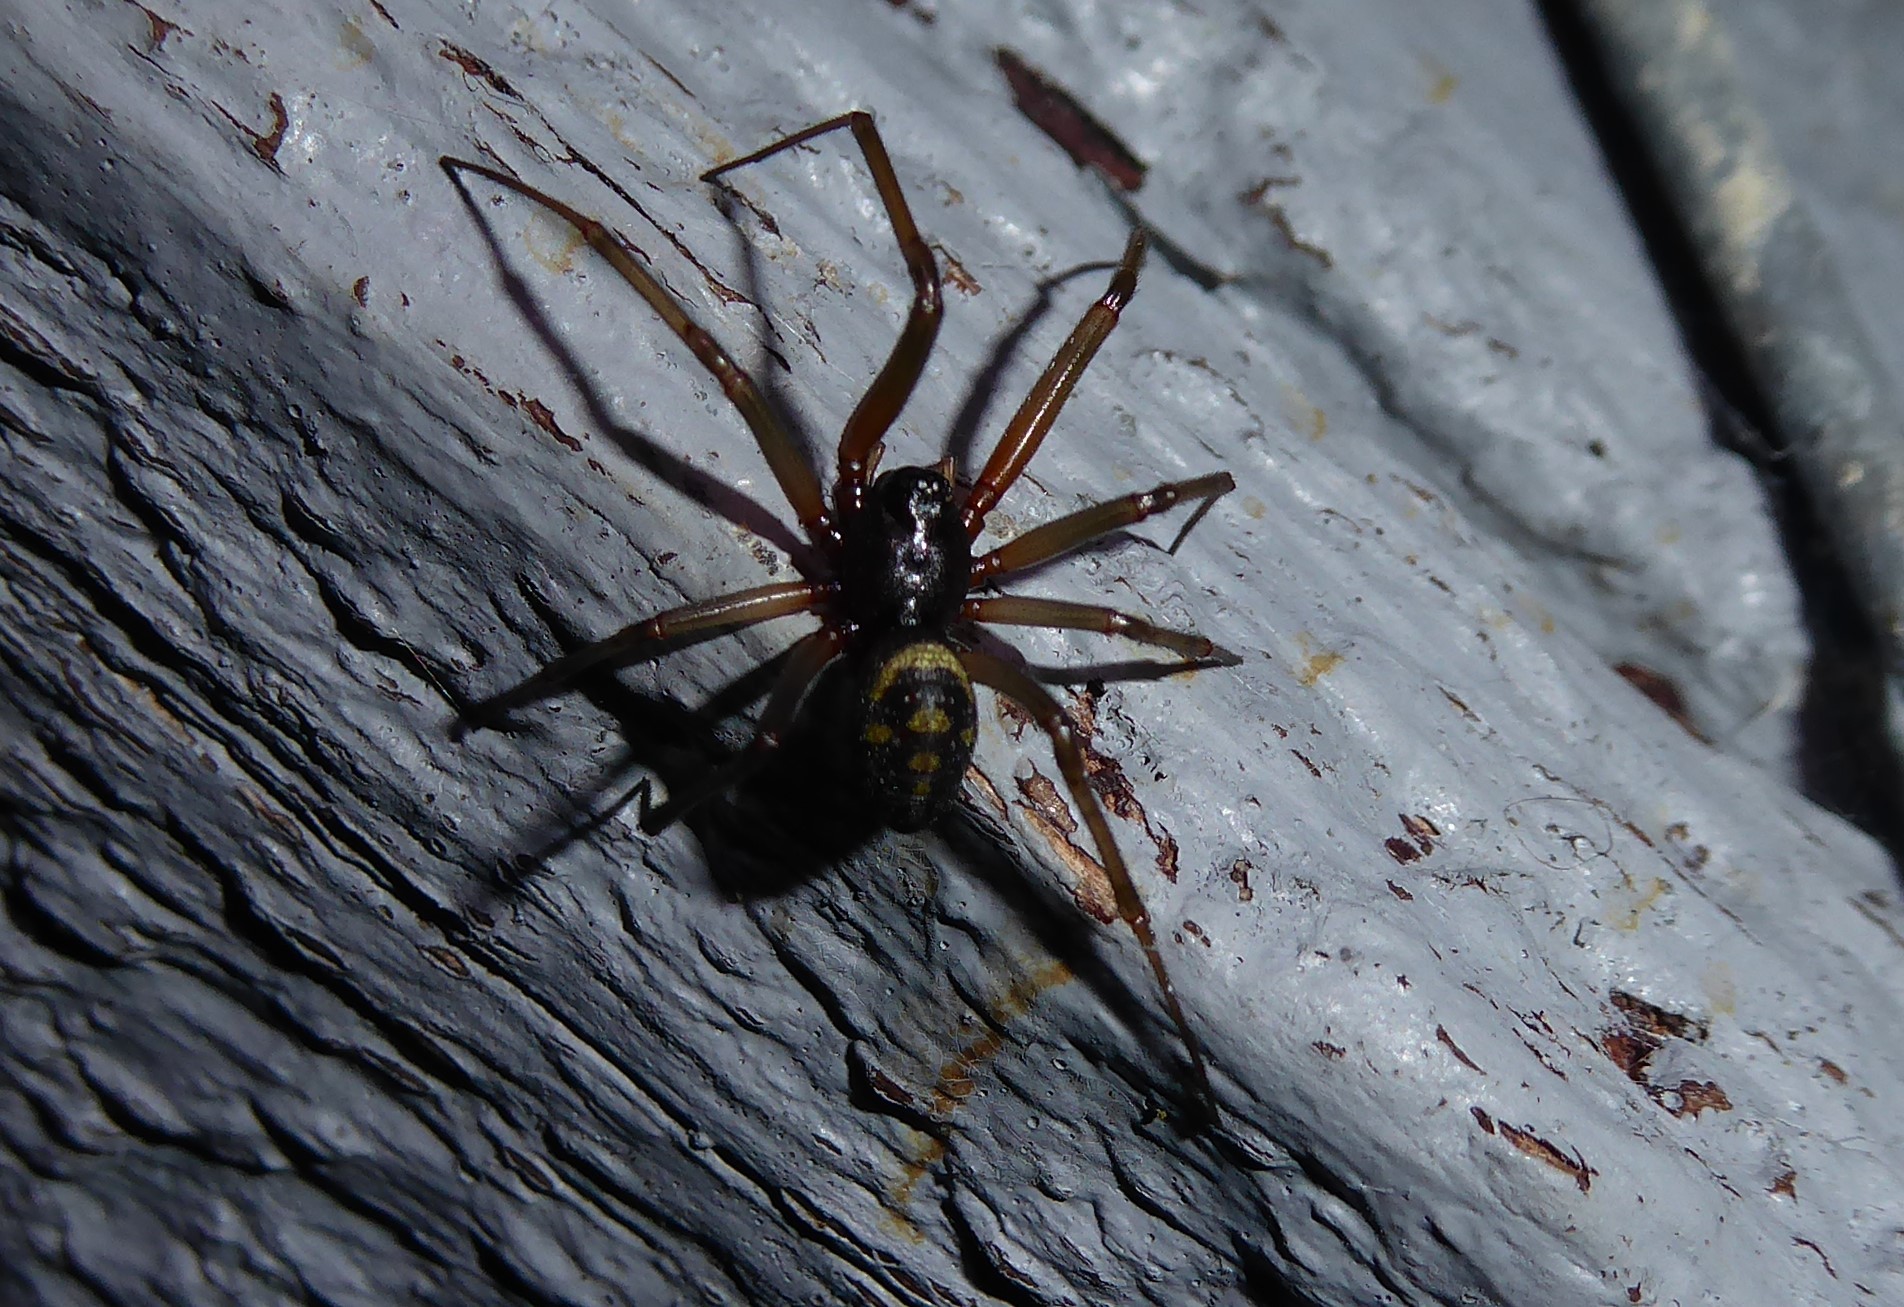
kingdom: Animalia
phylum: Arthropoda
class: Arachnida
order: Araneae
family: Theridiidae
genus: Steatoda
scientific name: Steatoda grossa
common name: False black widow
